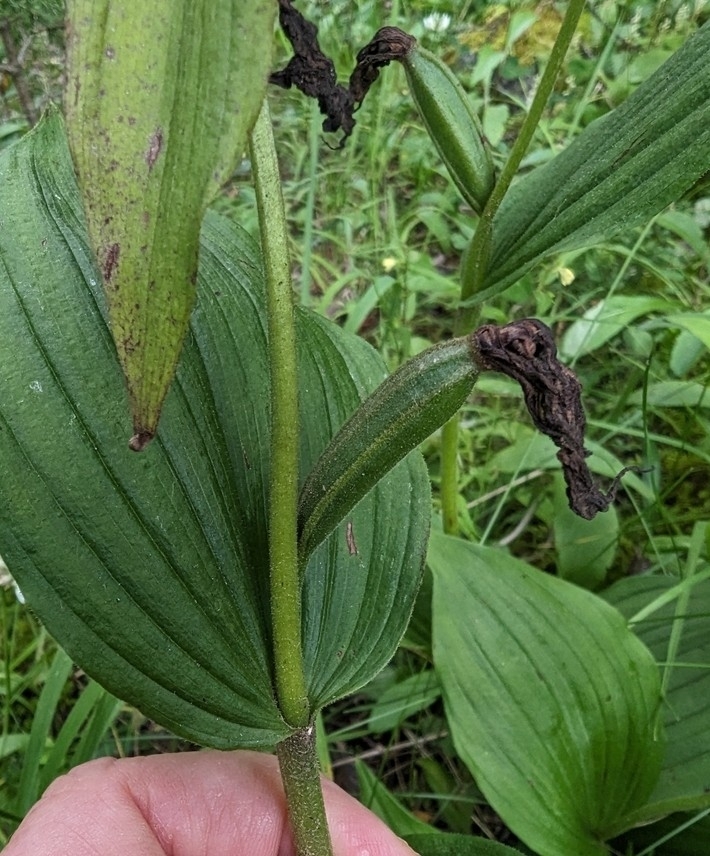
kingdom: Plantae
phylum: Tracheophyta
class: Liliopsida
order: Asparagales
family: Orchidaceae
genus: Cypripedium
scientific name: Cypripedium calceolus
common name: Lady's-slipper
